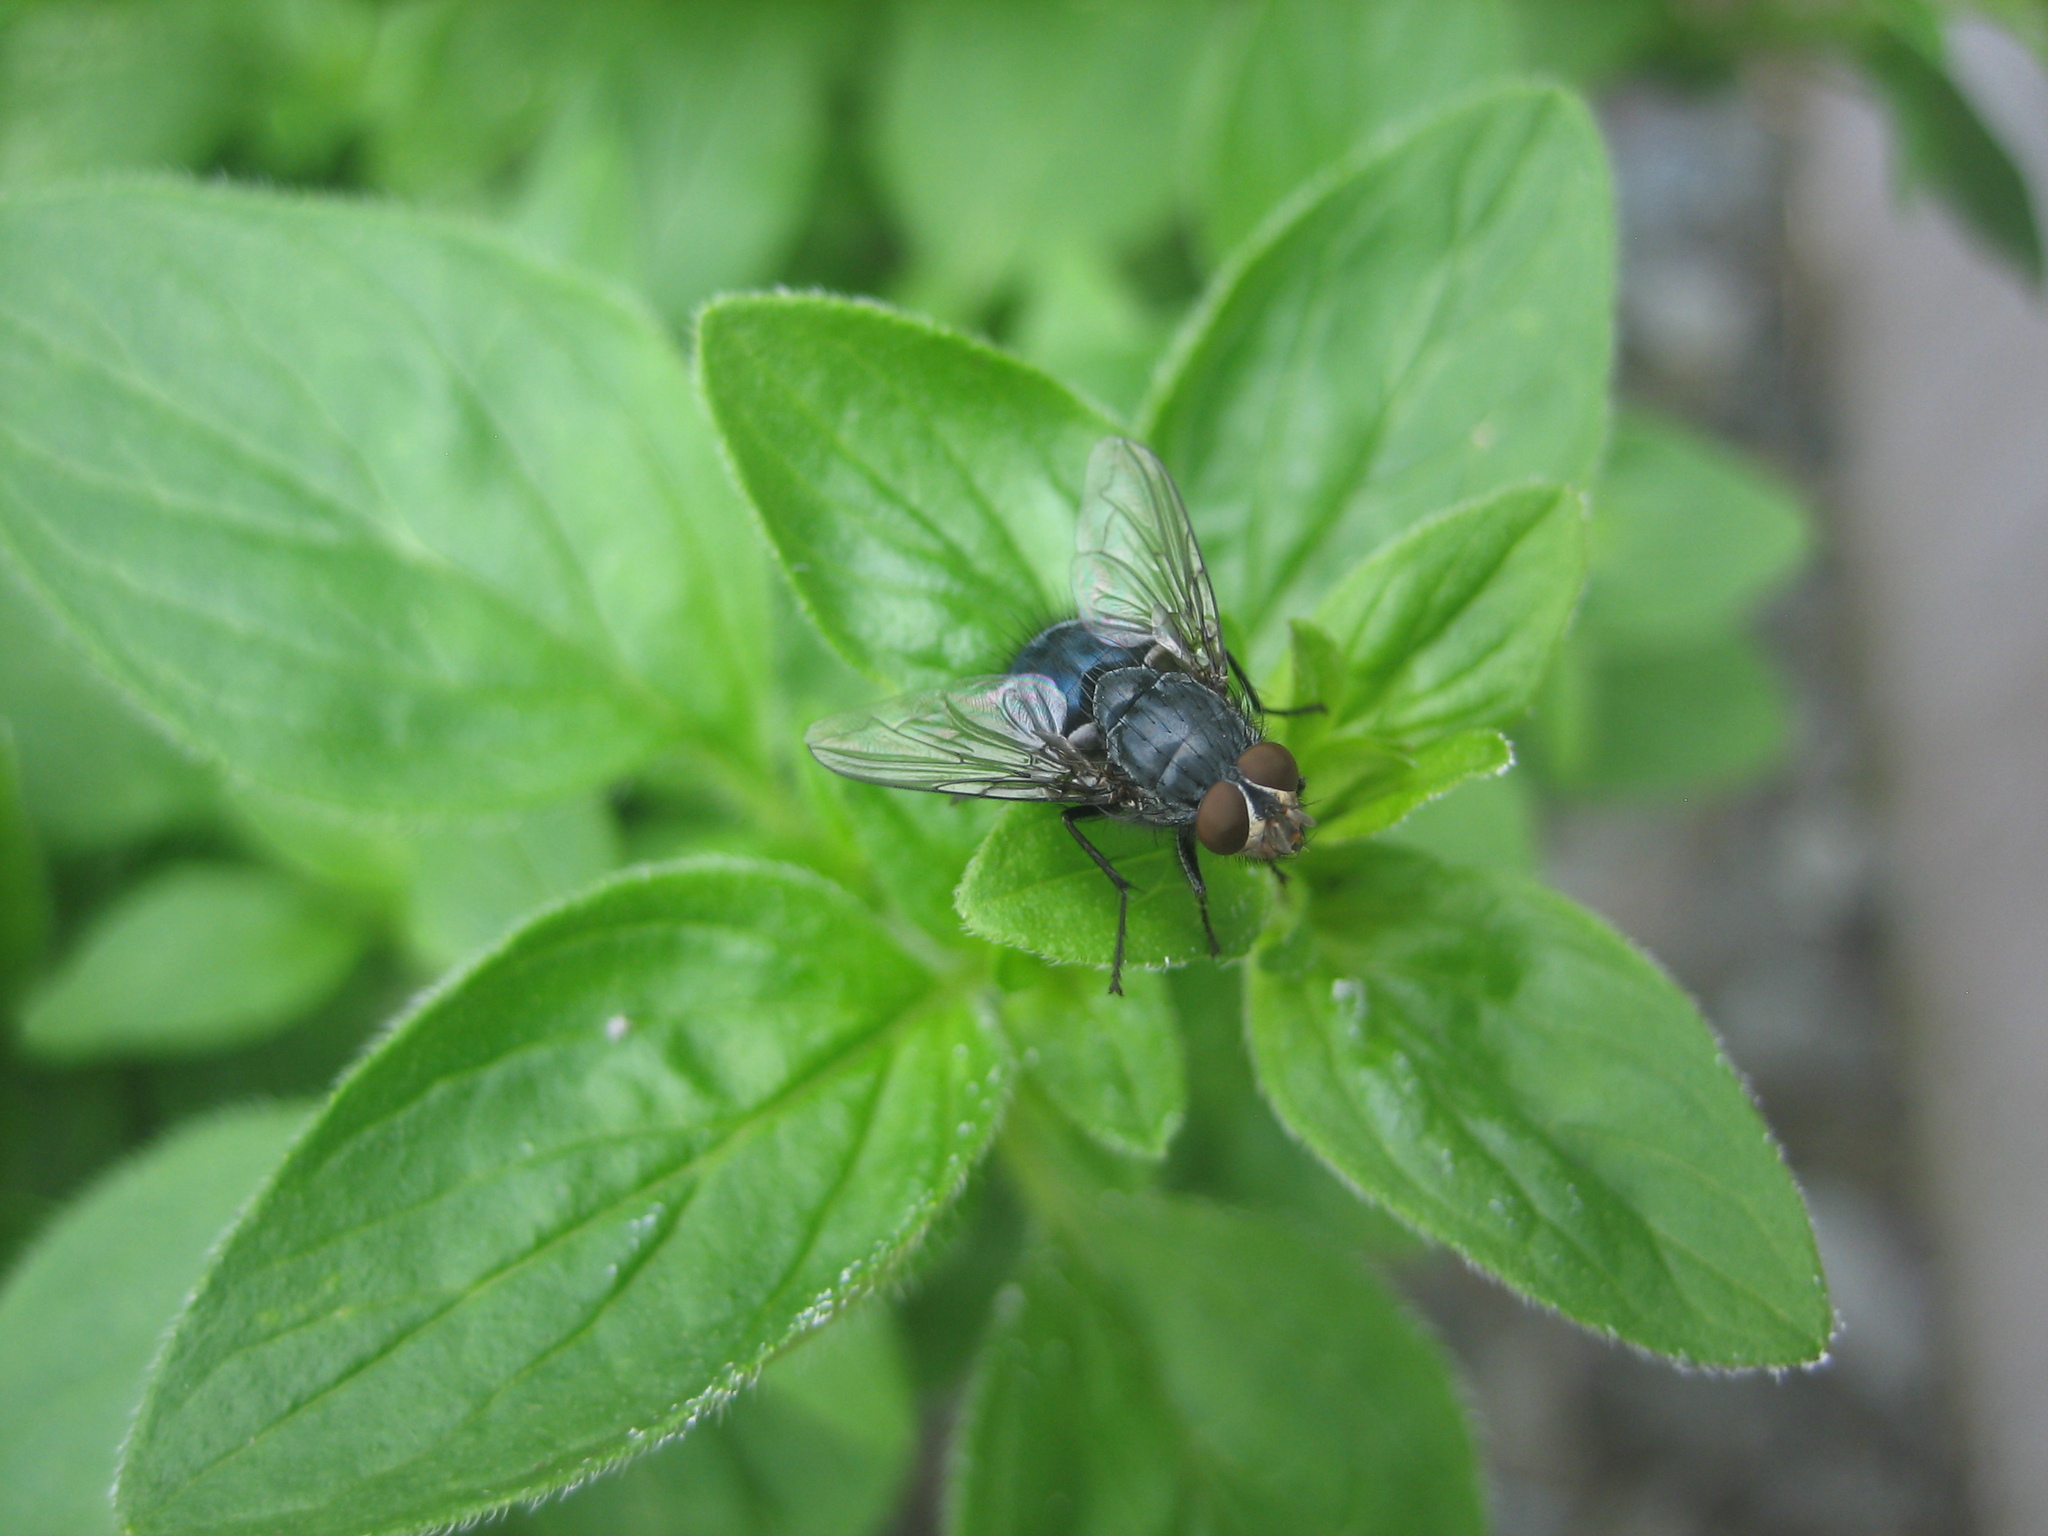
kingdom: Animalia
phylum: Arthropoda
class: Insecta
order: Diptera
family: Calliphoridae
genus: Calliphora
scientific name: Calliphora vicina
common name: Common blow flie
